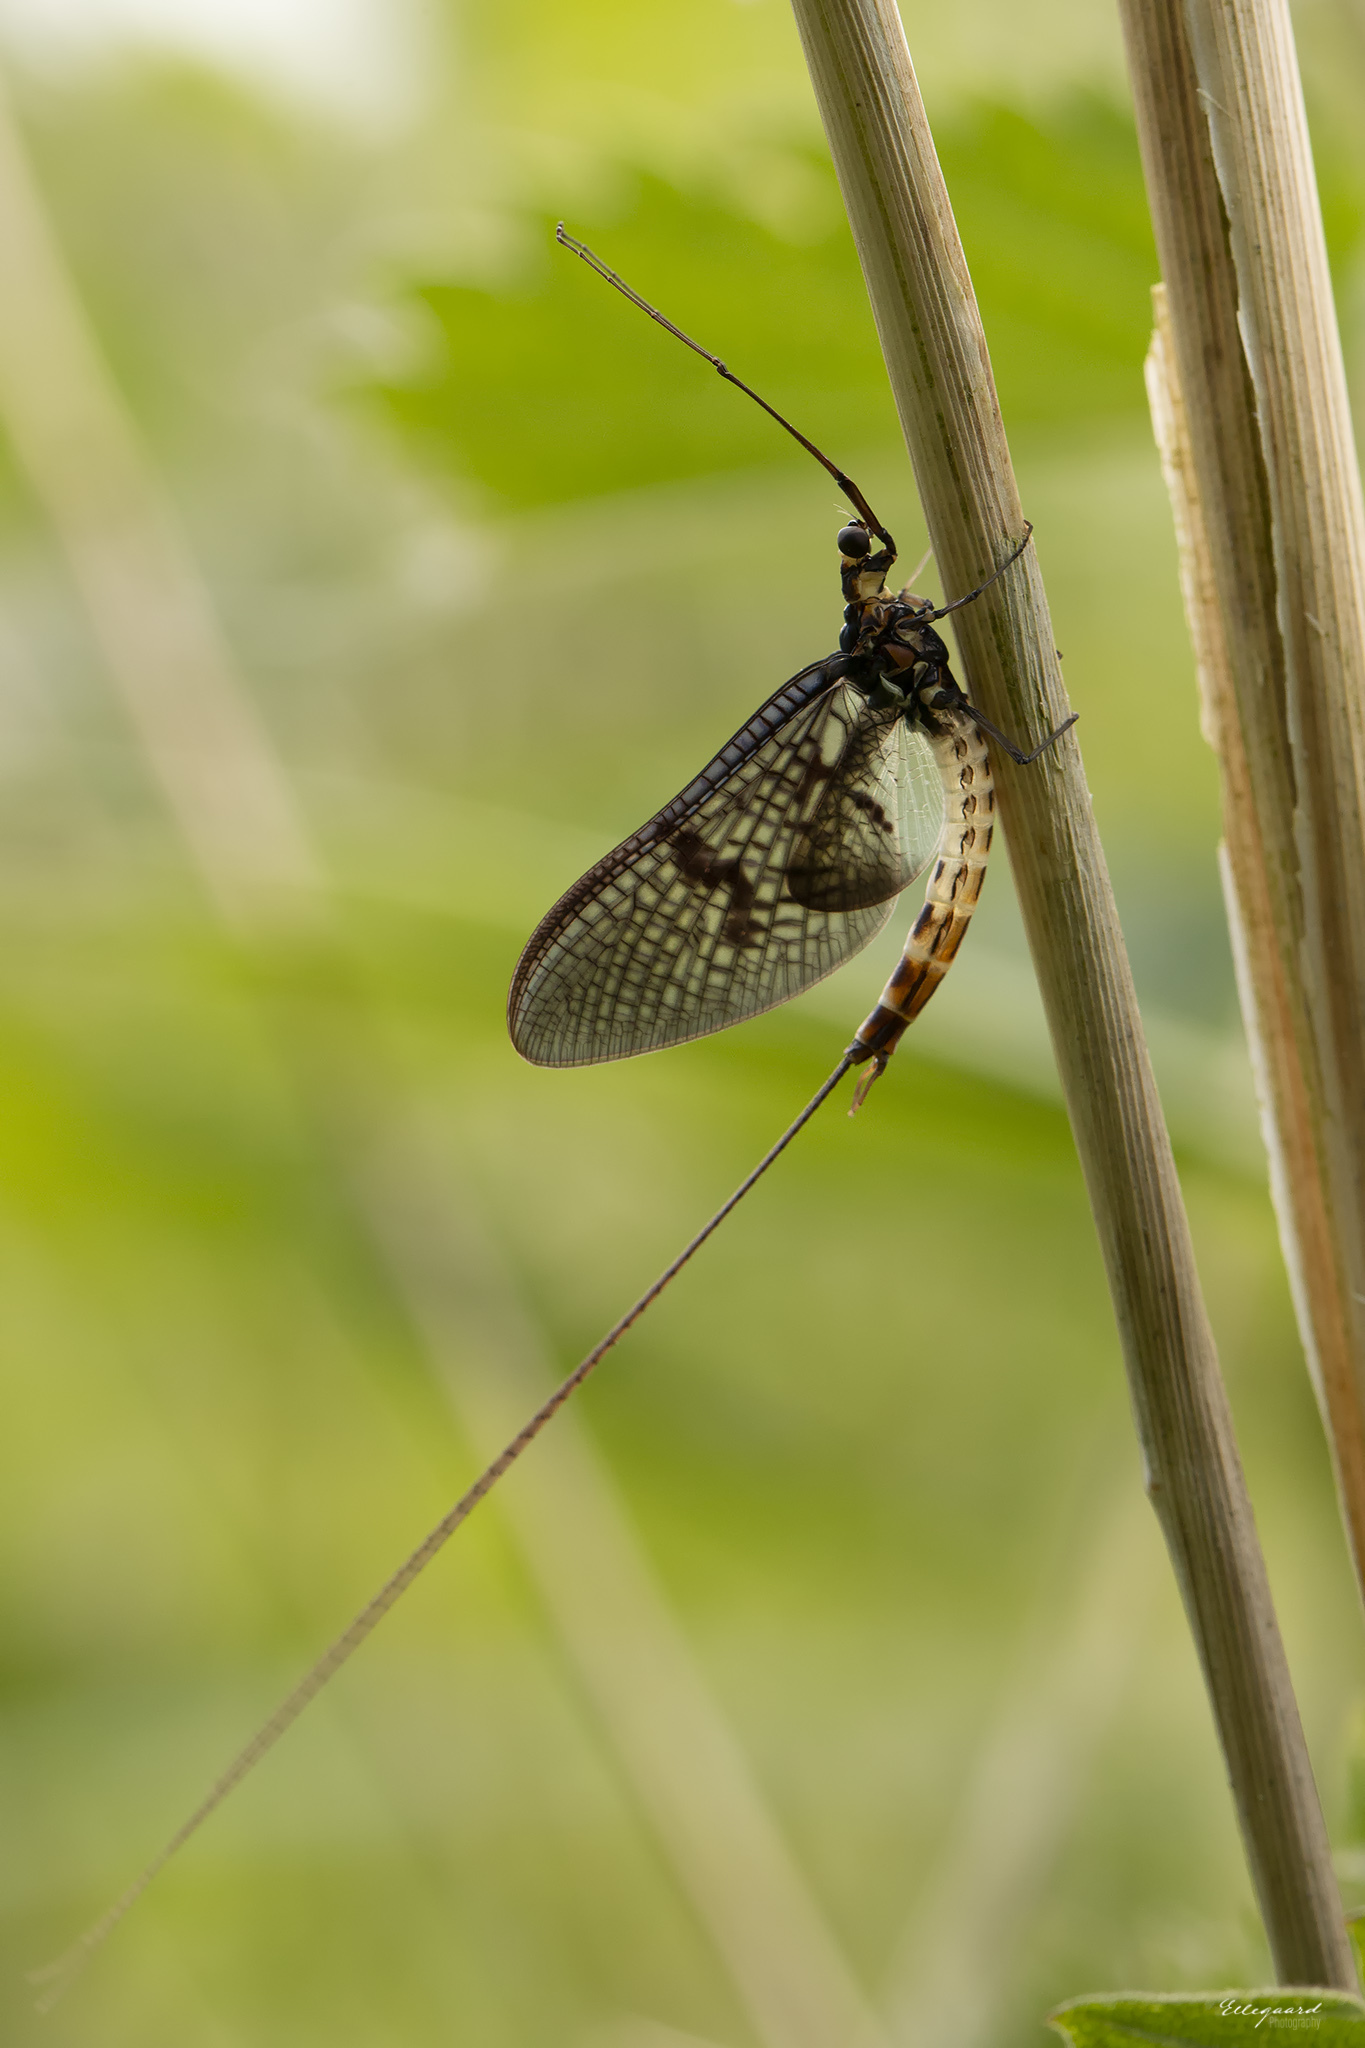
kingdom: Animalia
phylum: Arthropoda
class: Insecta
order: Ephemeroptera
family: Ephemeridae
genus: Ephemera
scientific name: Ephemera danica
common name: Green dun
